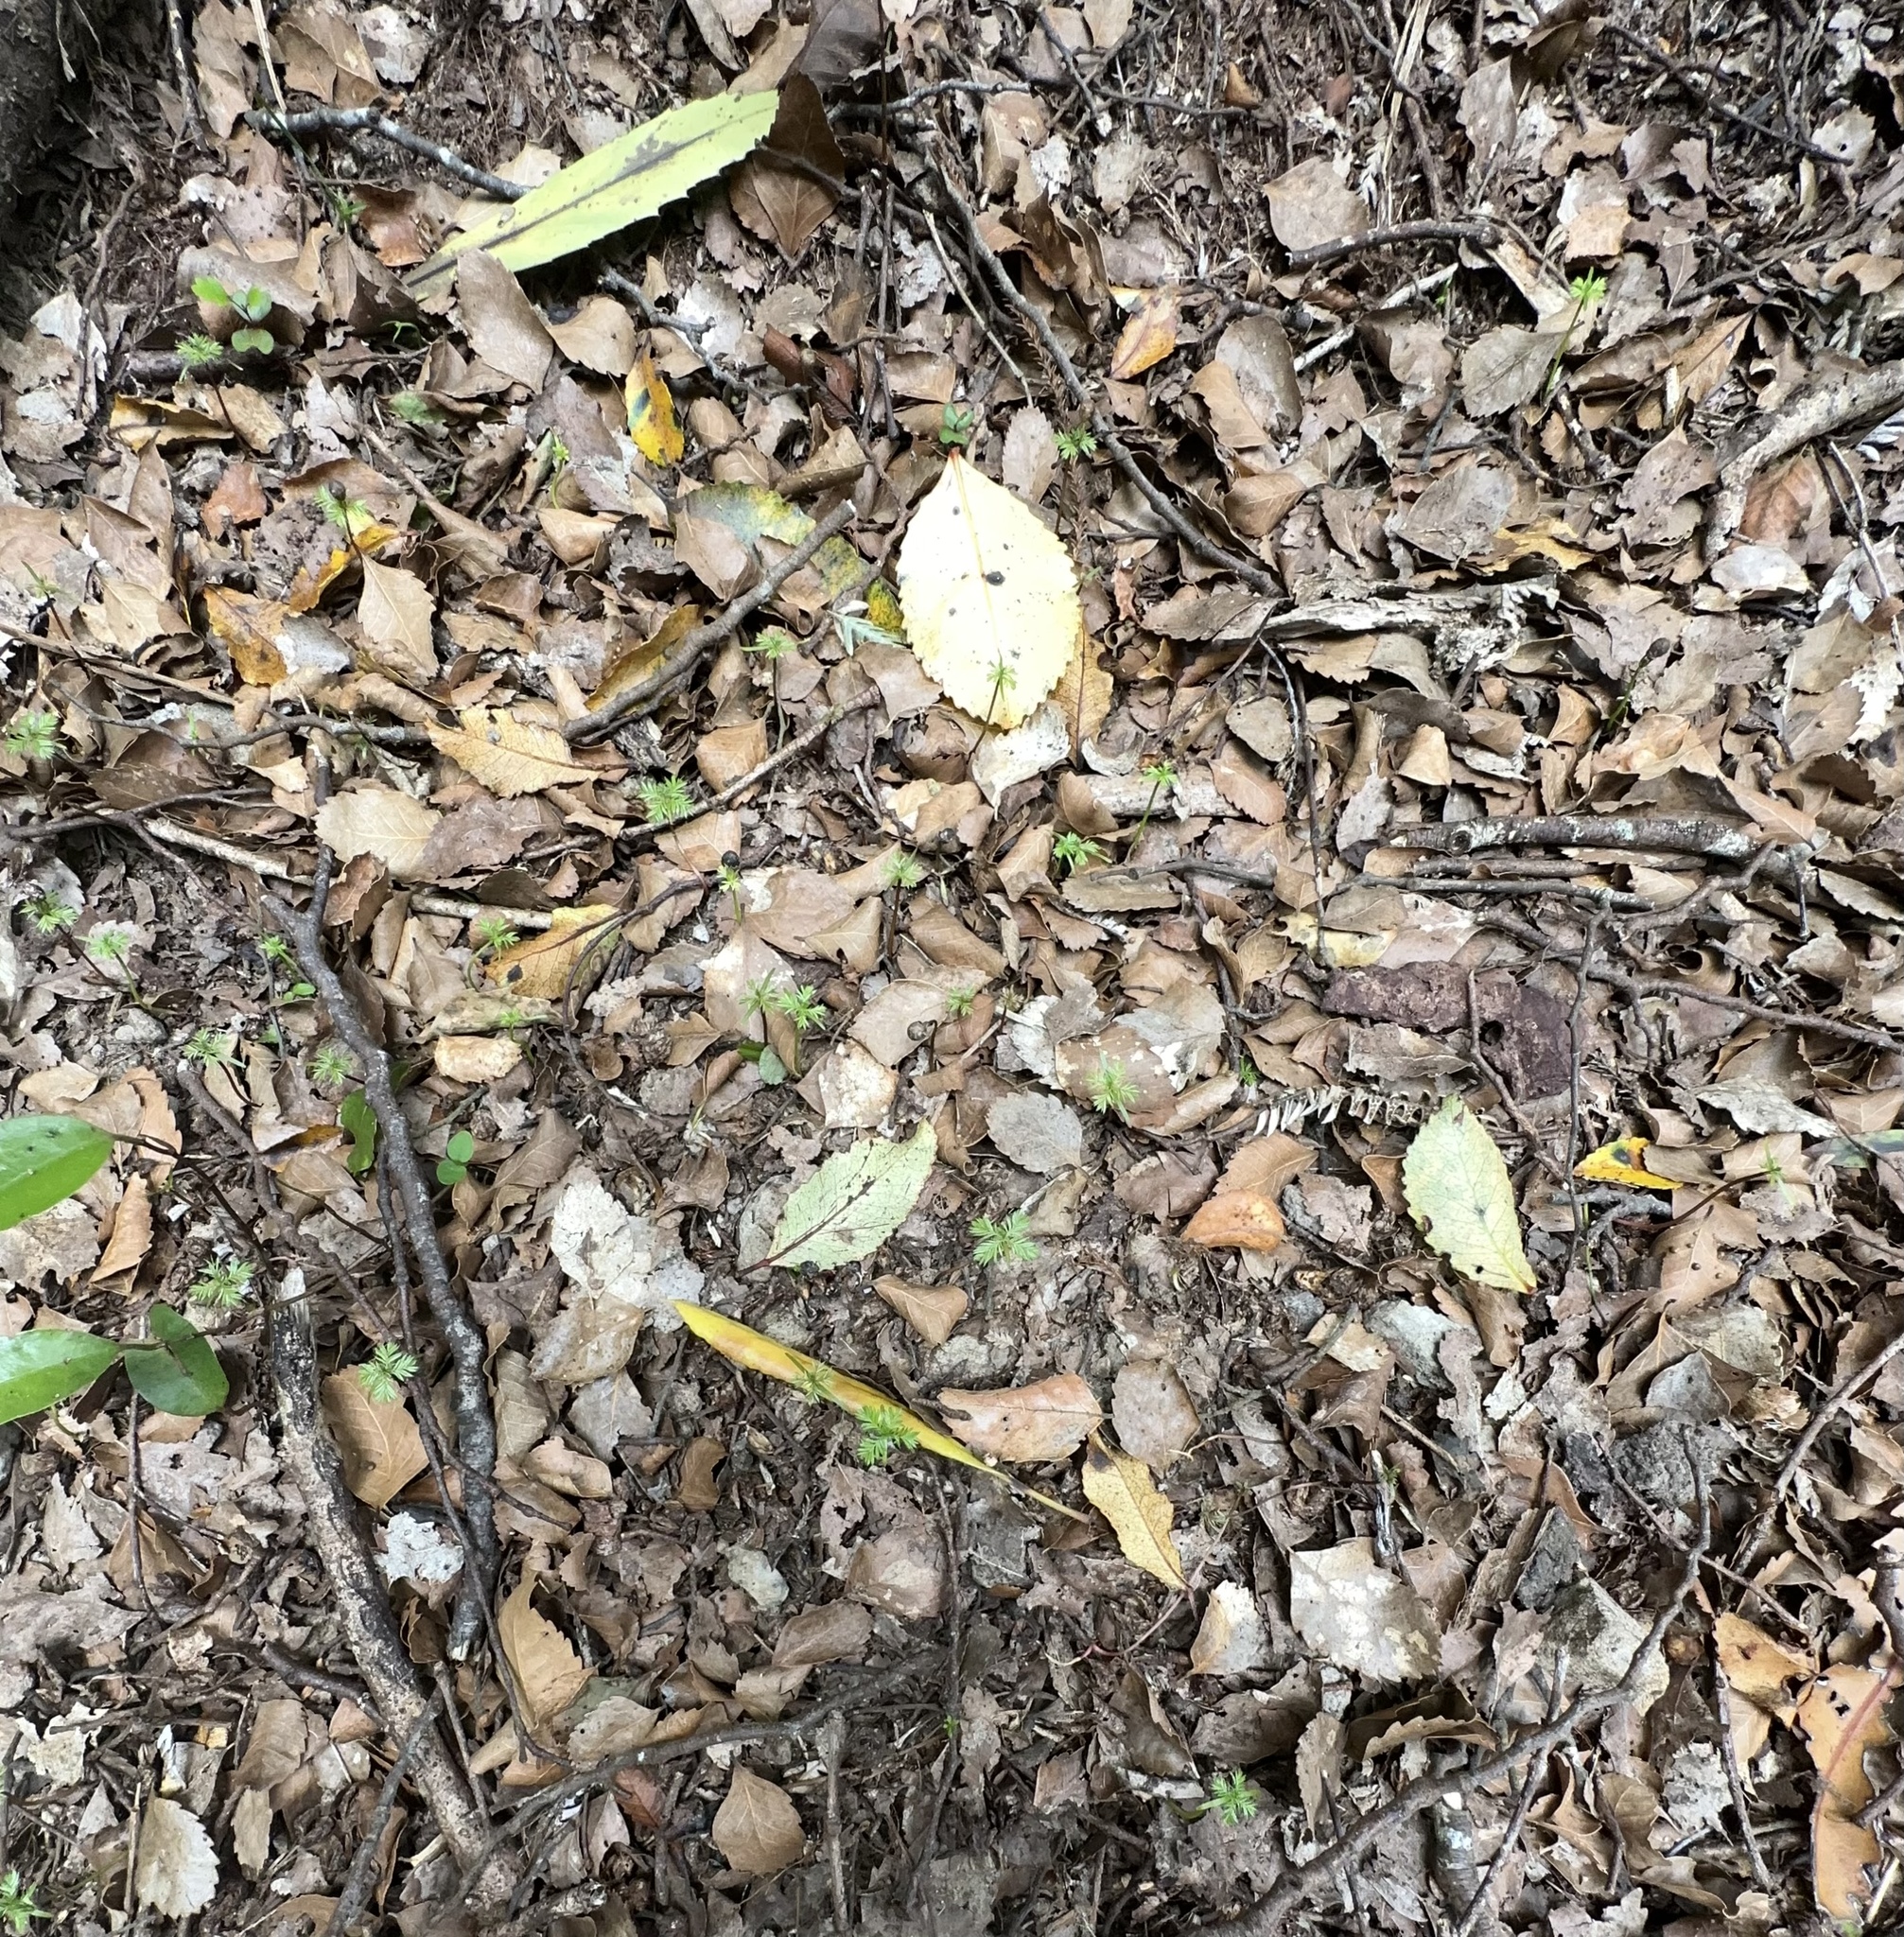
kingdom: Plantae
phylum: Tracheophyta
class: Pinopsida
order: Pinales
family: Podocarpaceae
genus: Dacrycarpus
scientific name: Dacrycarpus dacrydioides
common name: White pine
